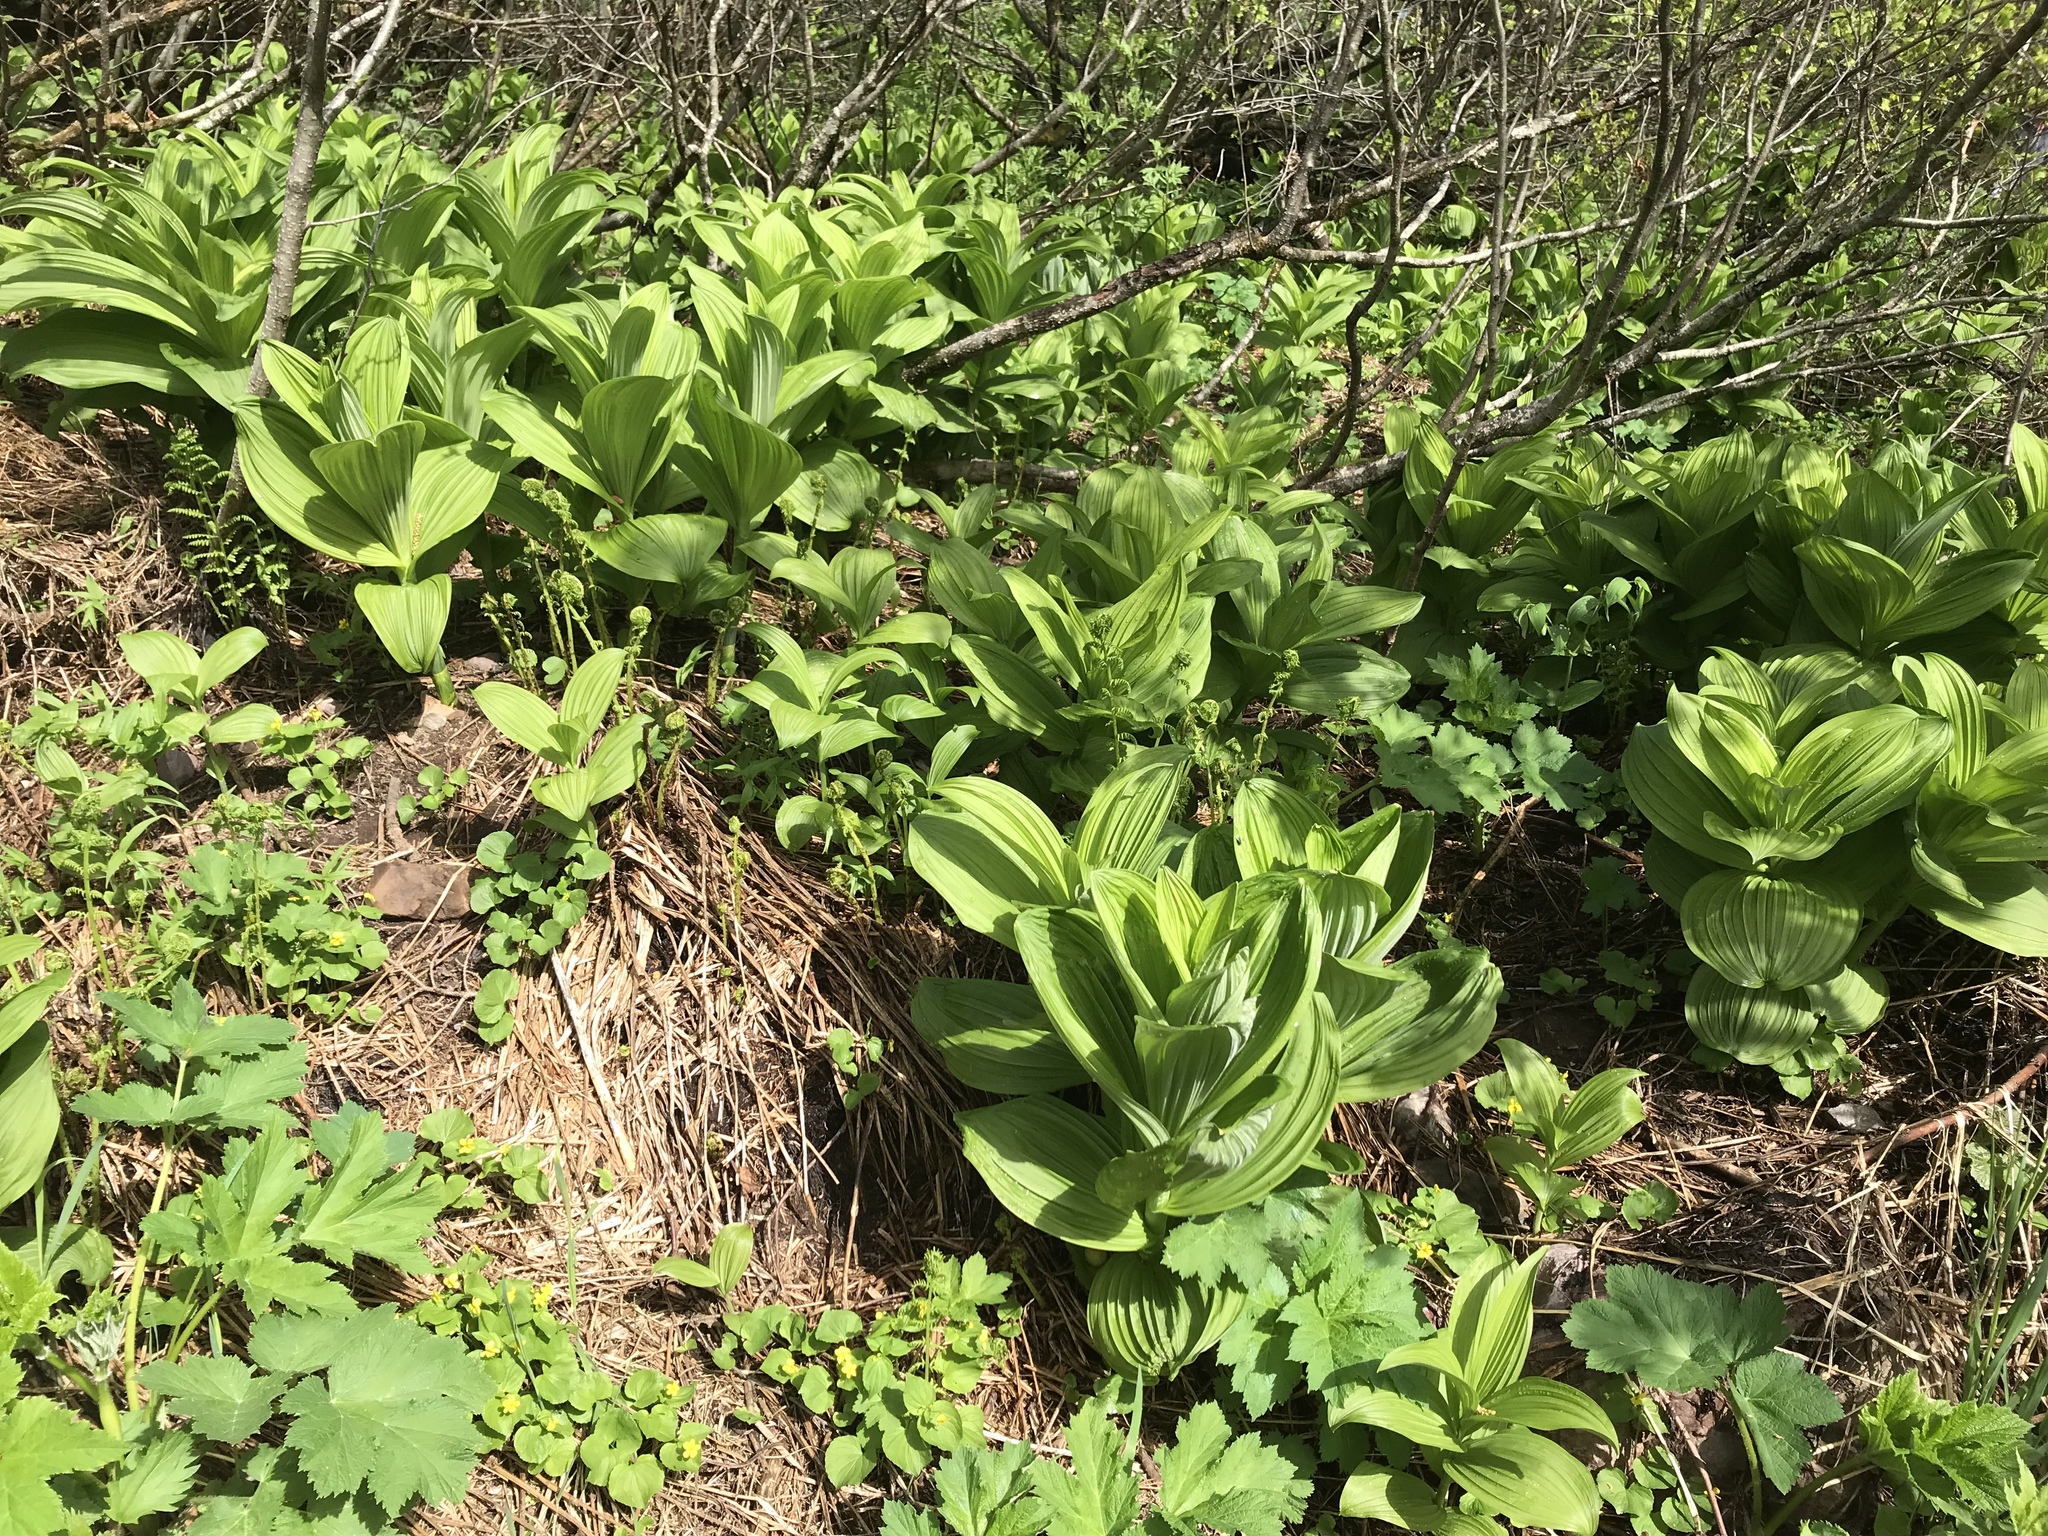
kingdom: Plantae
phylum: Tracheophyta
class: Liliopsida
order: Liliales
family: Melanthiaceae
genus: Veratrum
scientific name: Veratrum viride
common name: American false hellebore
